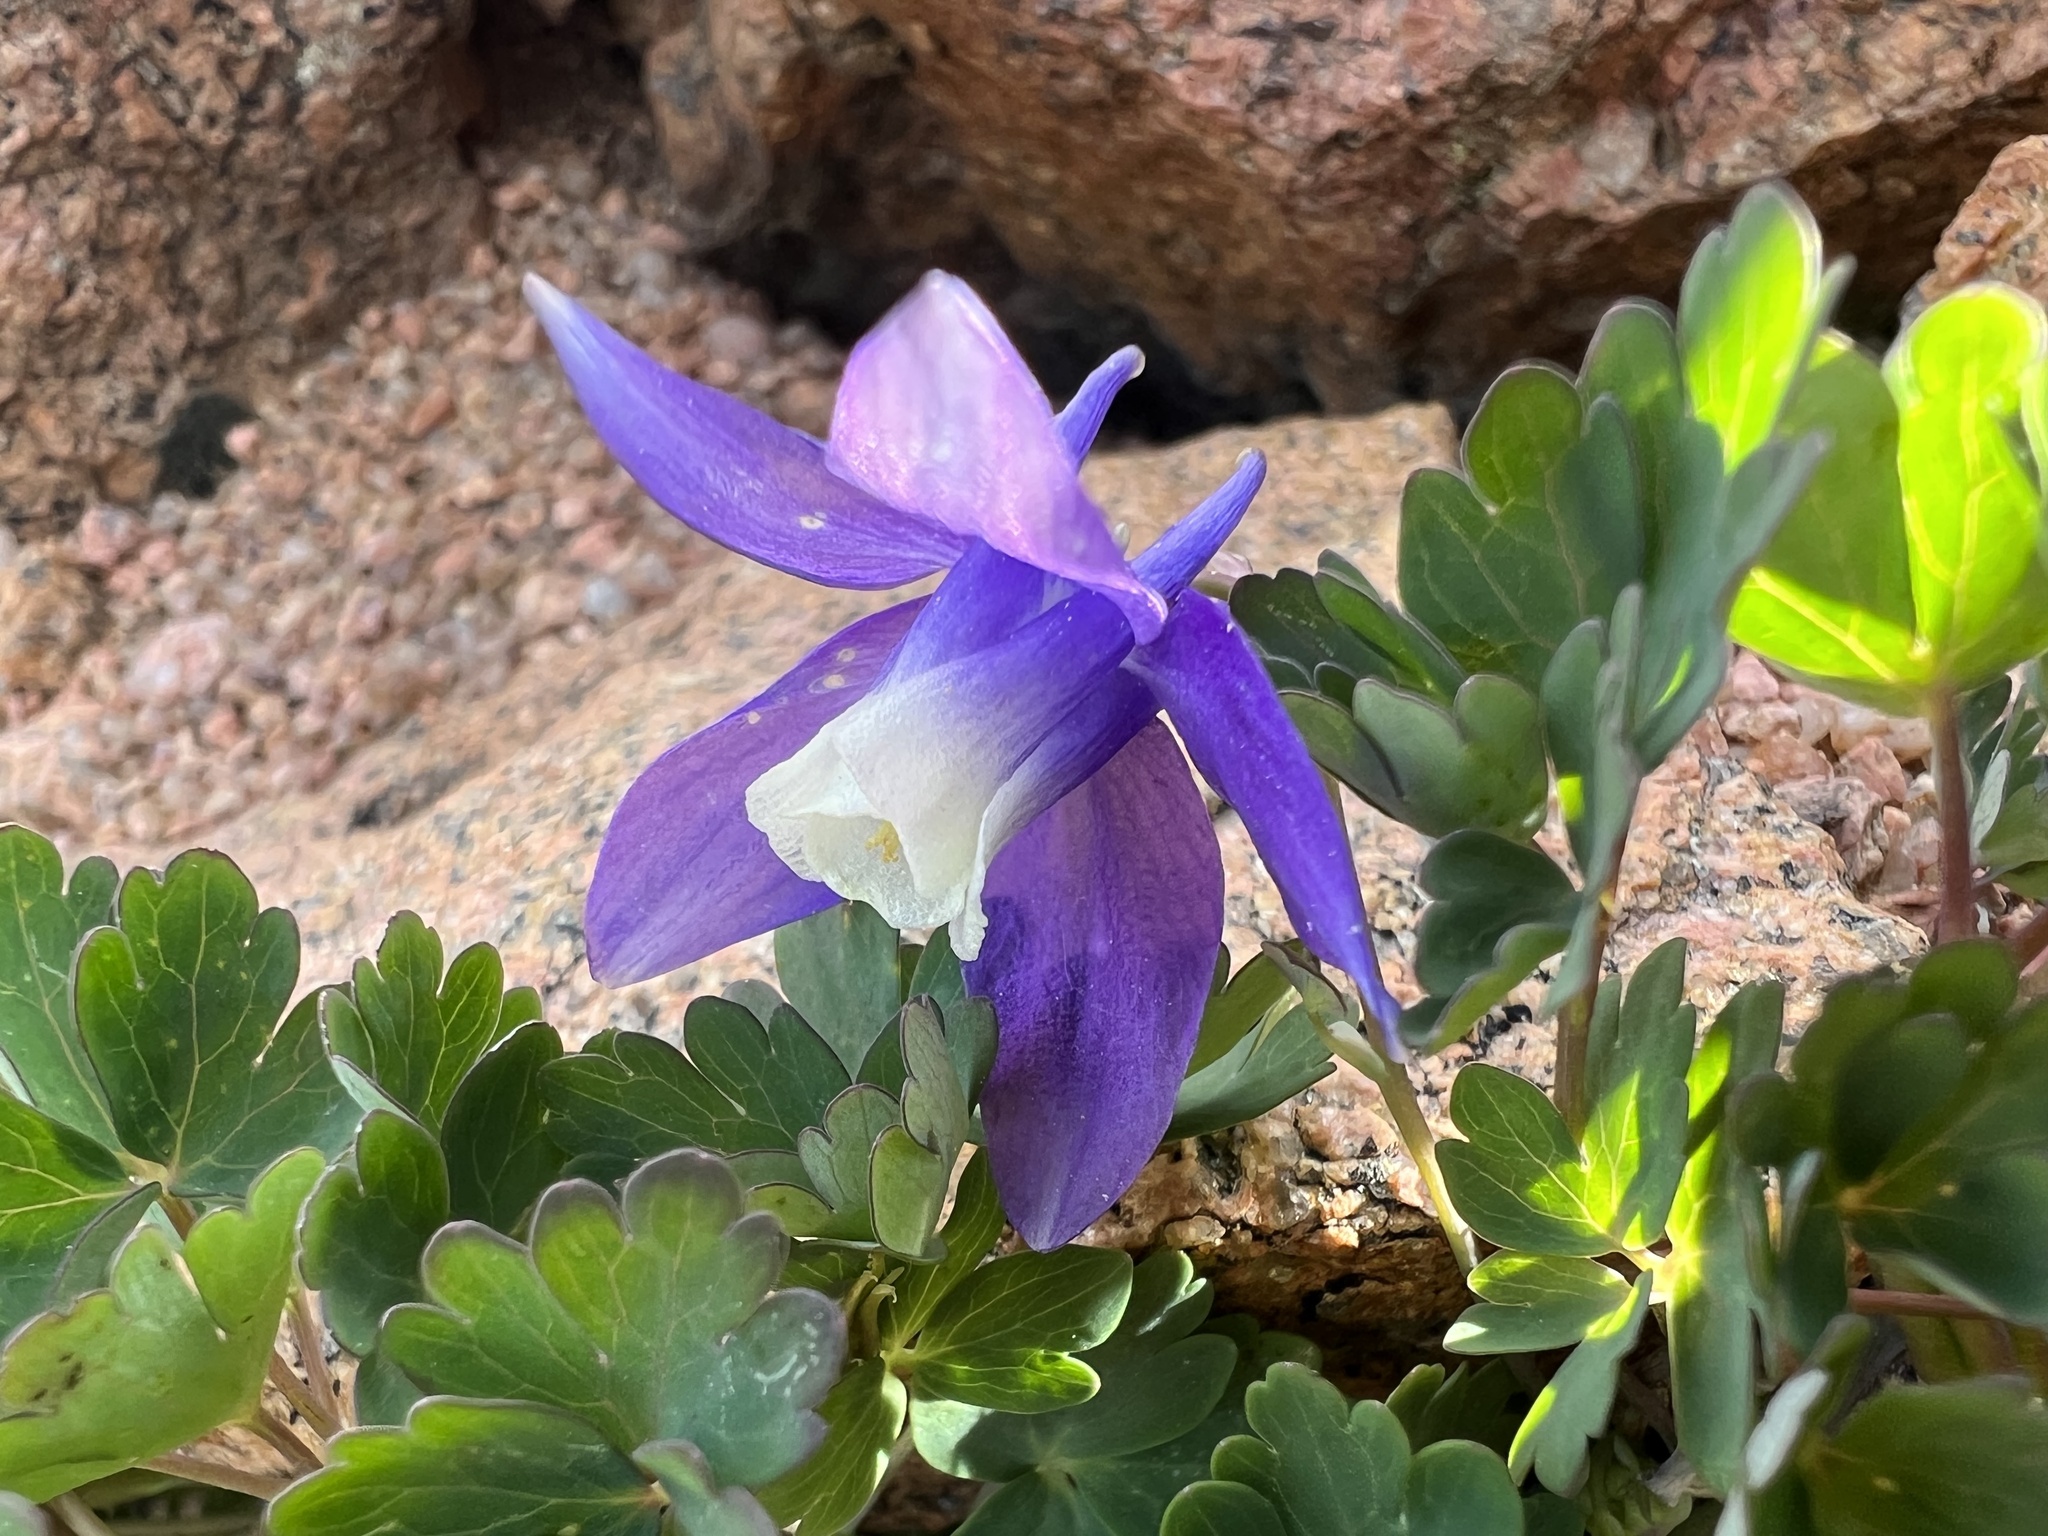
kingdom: Plantae
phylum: Tracheophyta
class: Magnoliopsida
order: Ranunculales
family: Ranunculaceae
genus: Aquilegia
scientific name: Aquilegia saximontana
